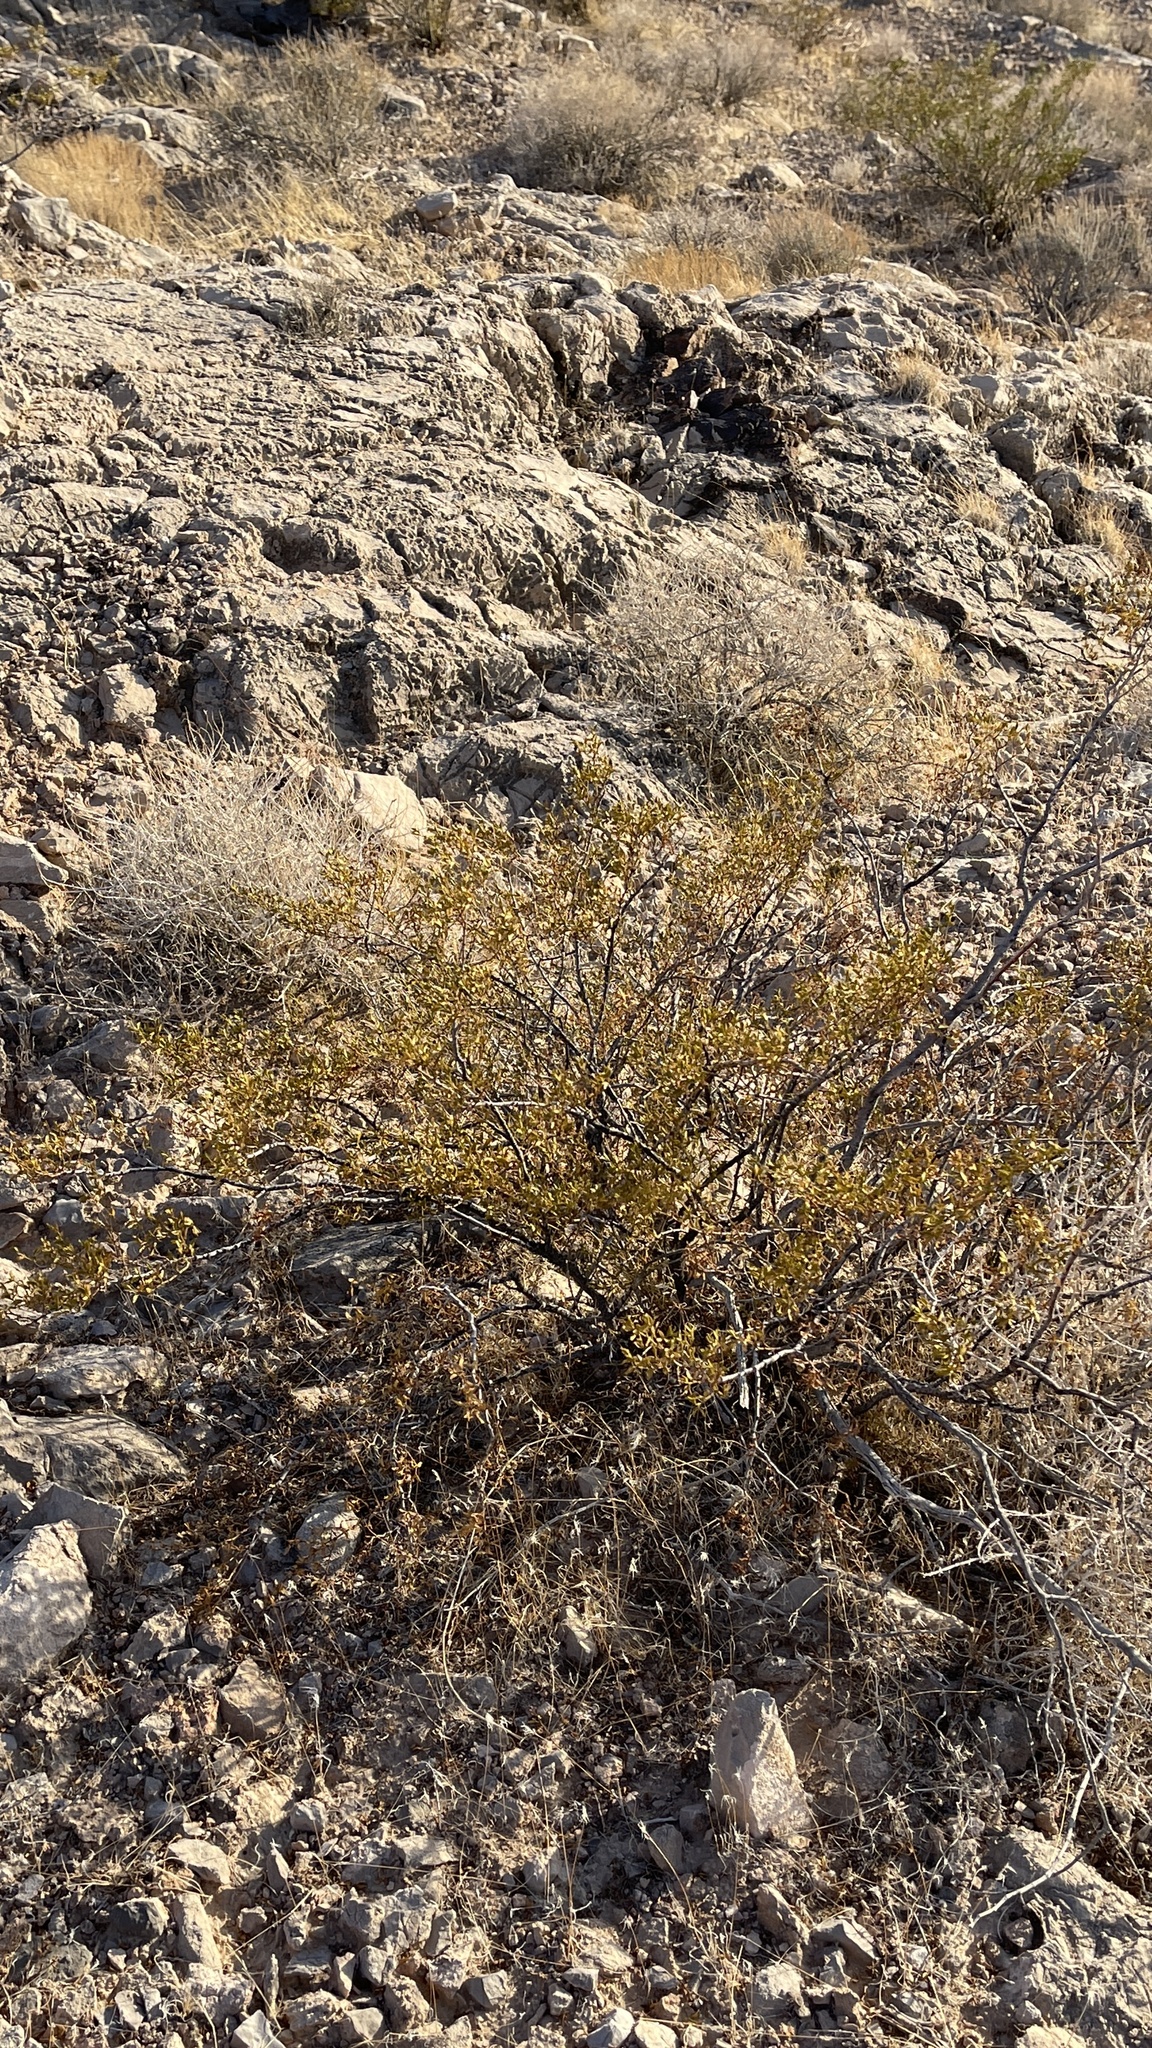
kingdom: Plantae
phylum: Tracheophyta
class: Magnoliopsida
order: Zygophyllales
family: Zygophyllaceae
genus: Larrea
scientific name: Larrea tridentata
